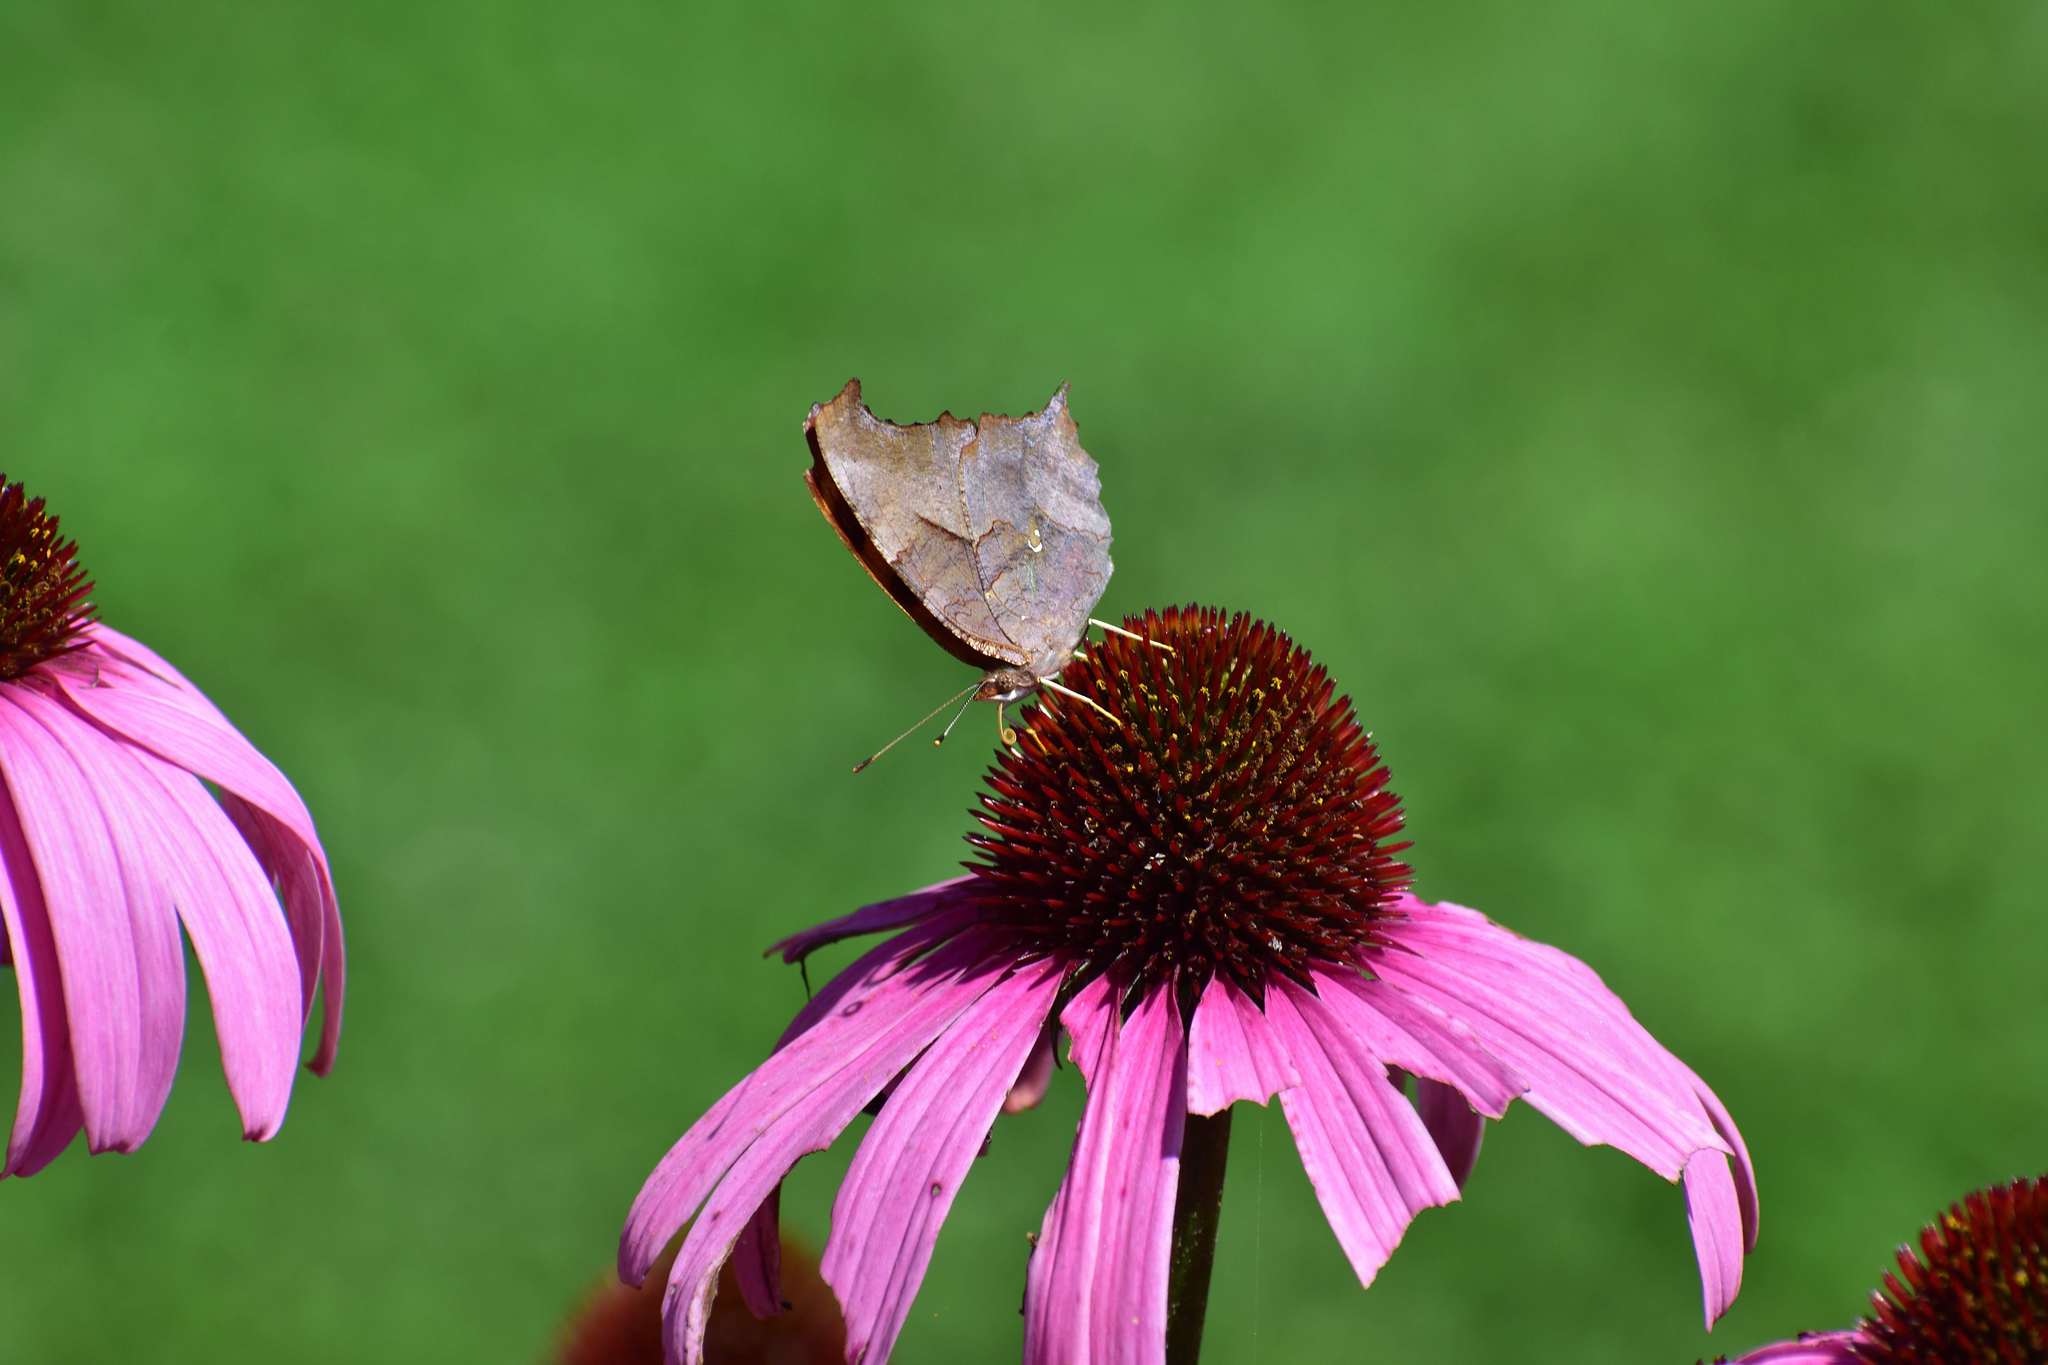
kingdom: Animalia
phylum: Arthropoda
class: Insecta
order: Lepidoptera
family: Nymphalidae
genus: Polygonia
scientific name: Polygonia interrogationis
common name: Question mark
